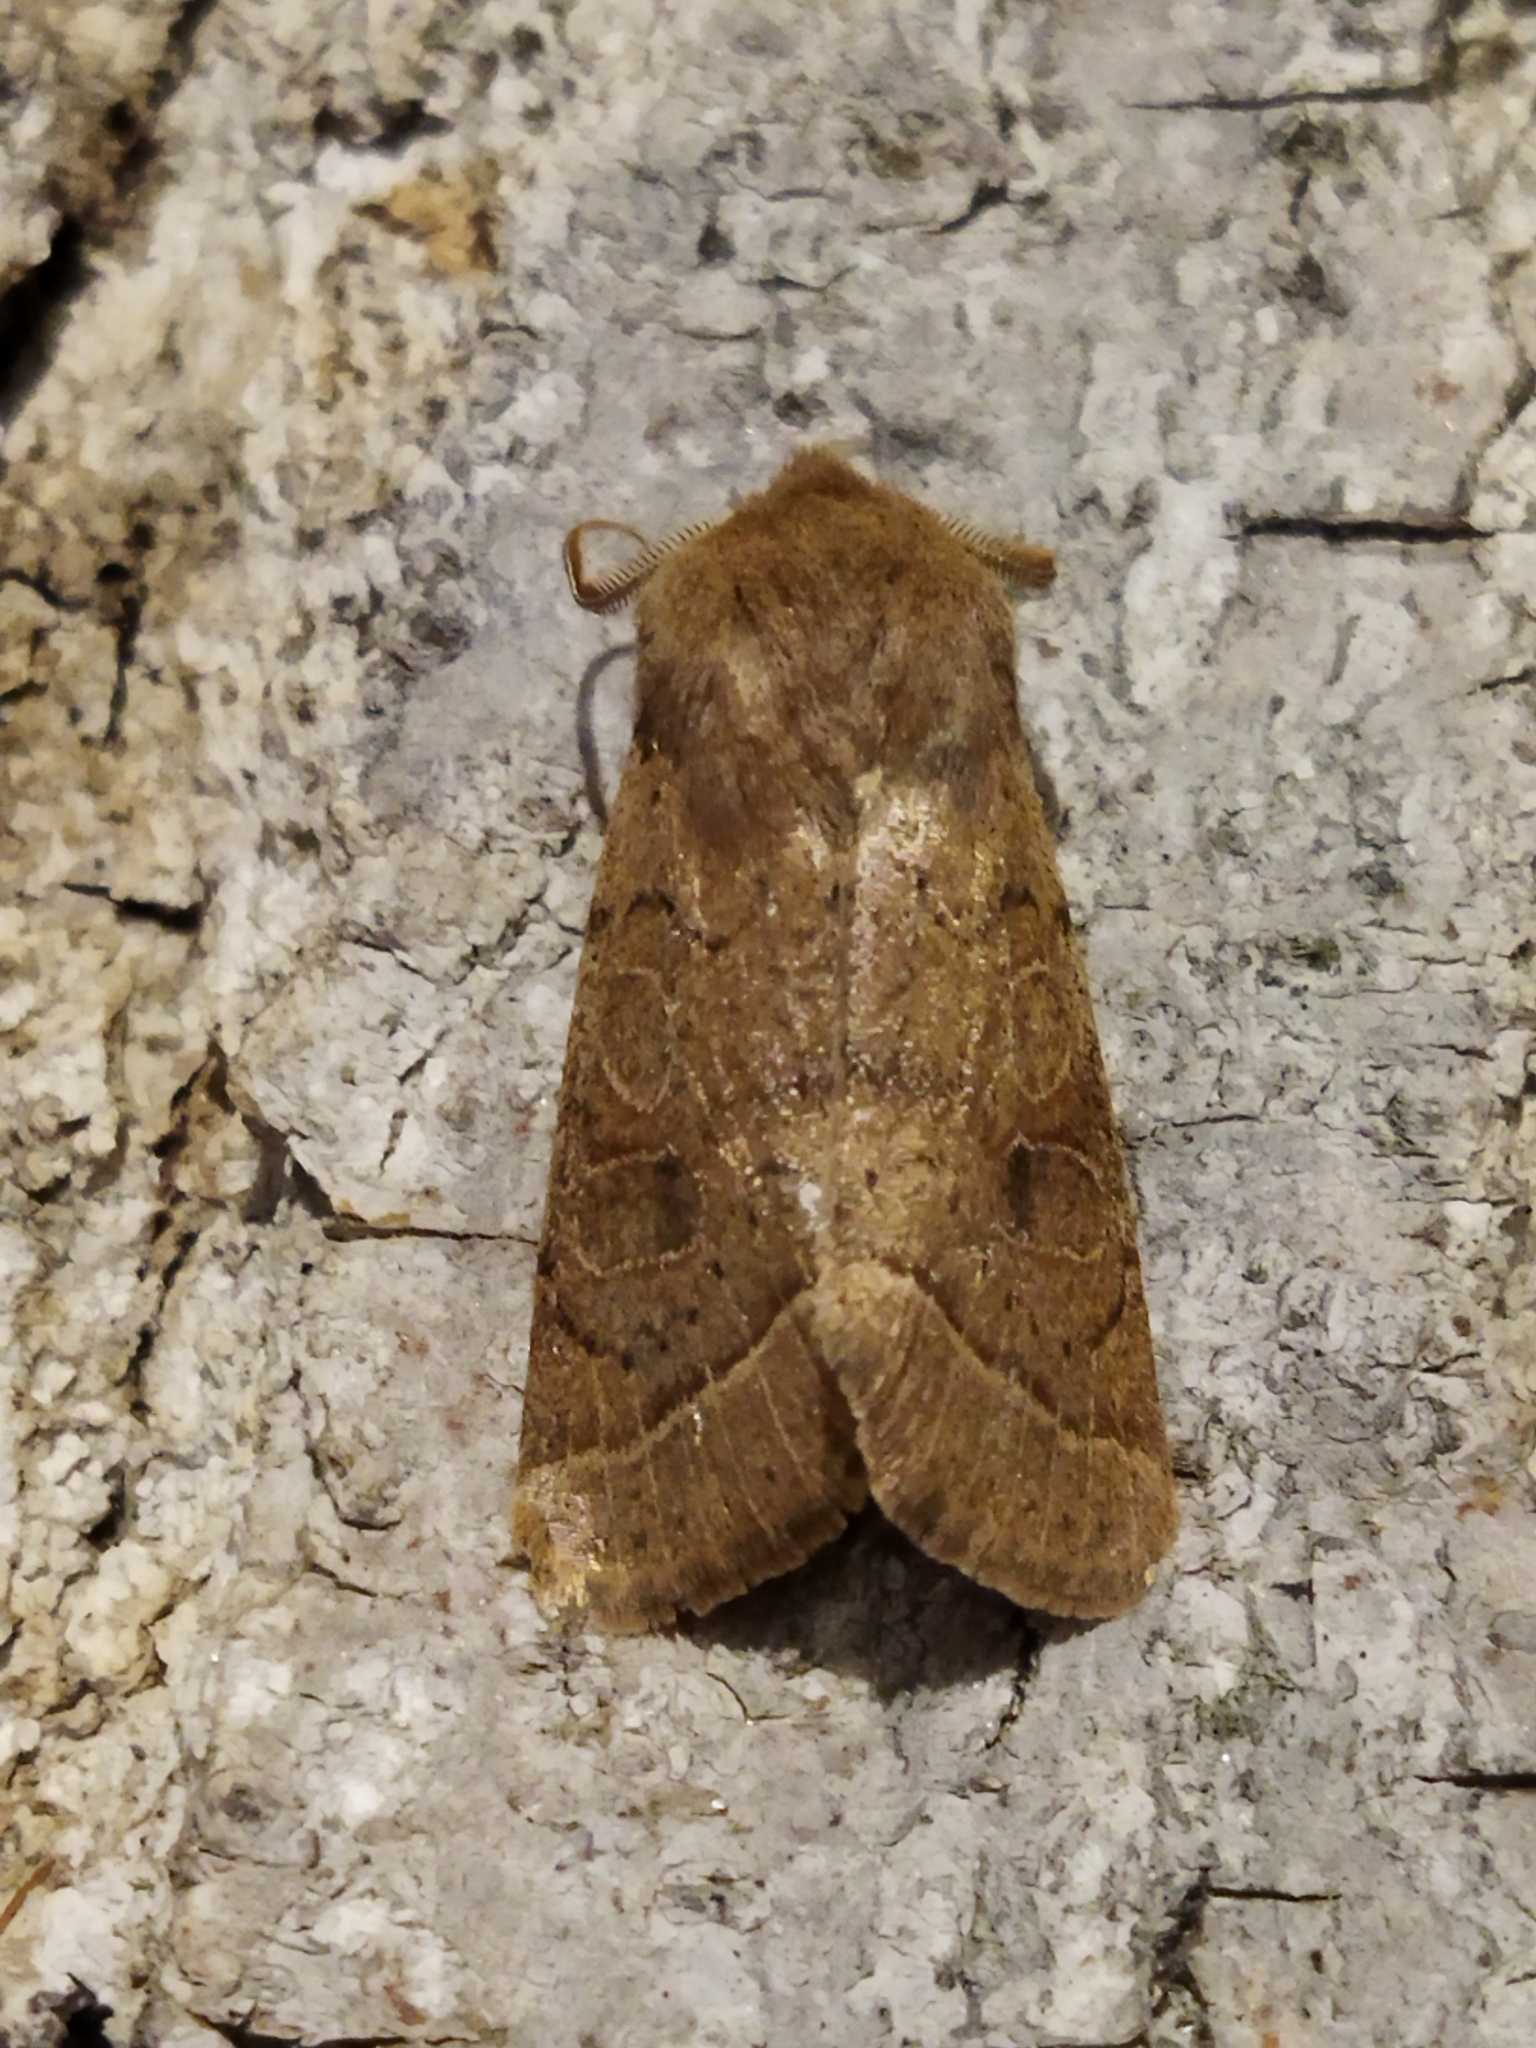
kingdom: Animalia
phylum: Arthropoda
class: Insecta
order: Lepidoptera
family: Noctuidae
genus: Orthosia
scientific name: Orthosia cerasi
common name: Common quaker
